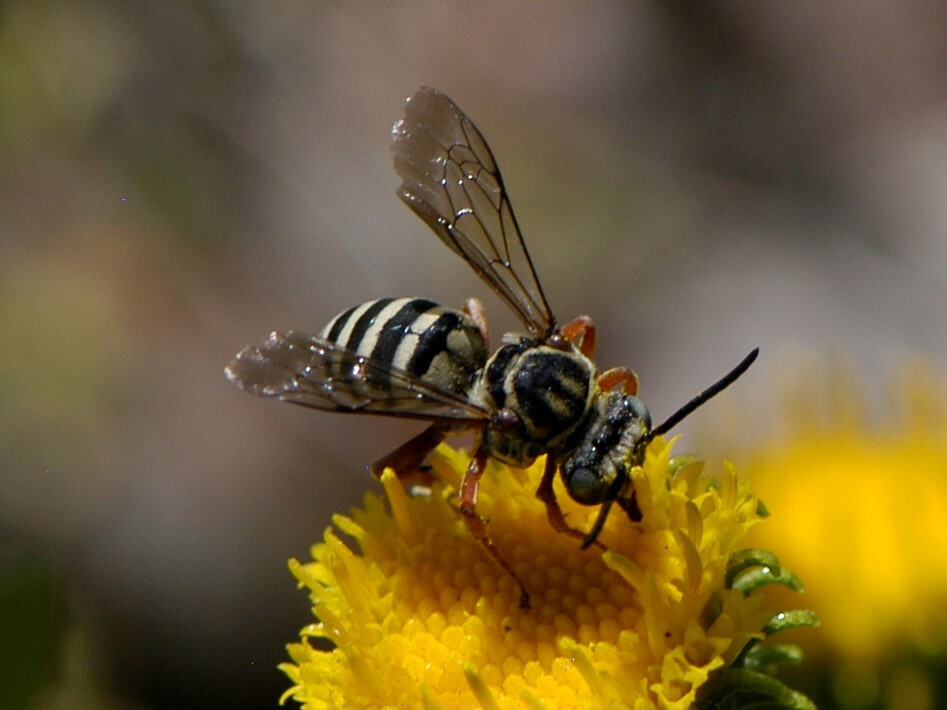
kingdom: Animalia
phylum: Arthropoda
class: Insecta
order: Hymenoptera
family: Apidae
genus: Triepeolus
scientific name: Triepeolus denverensis
